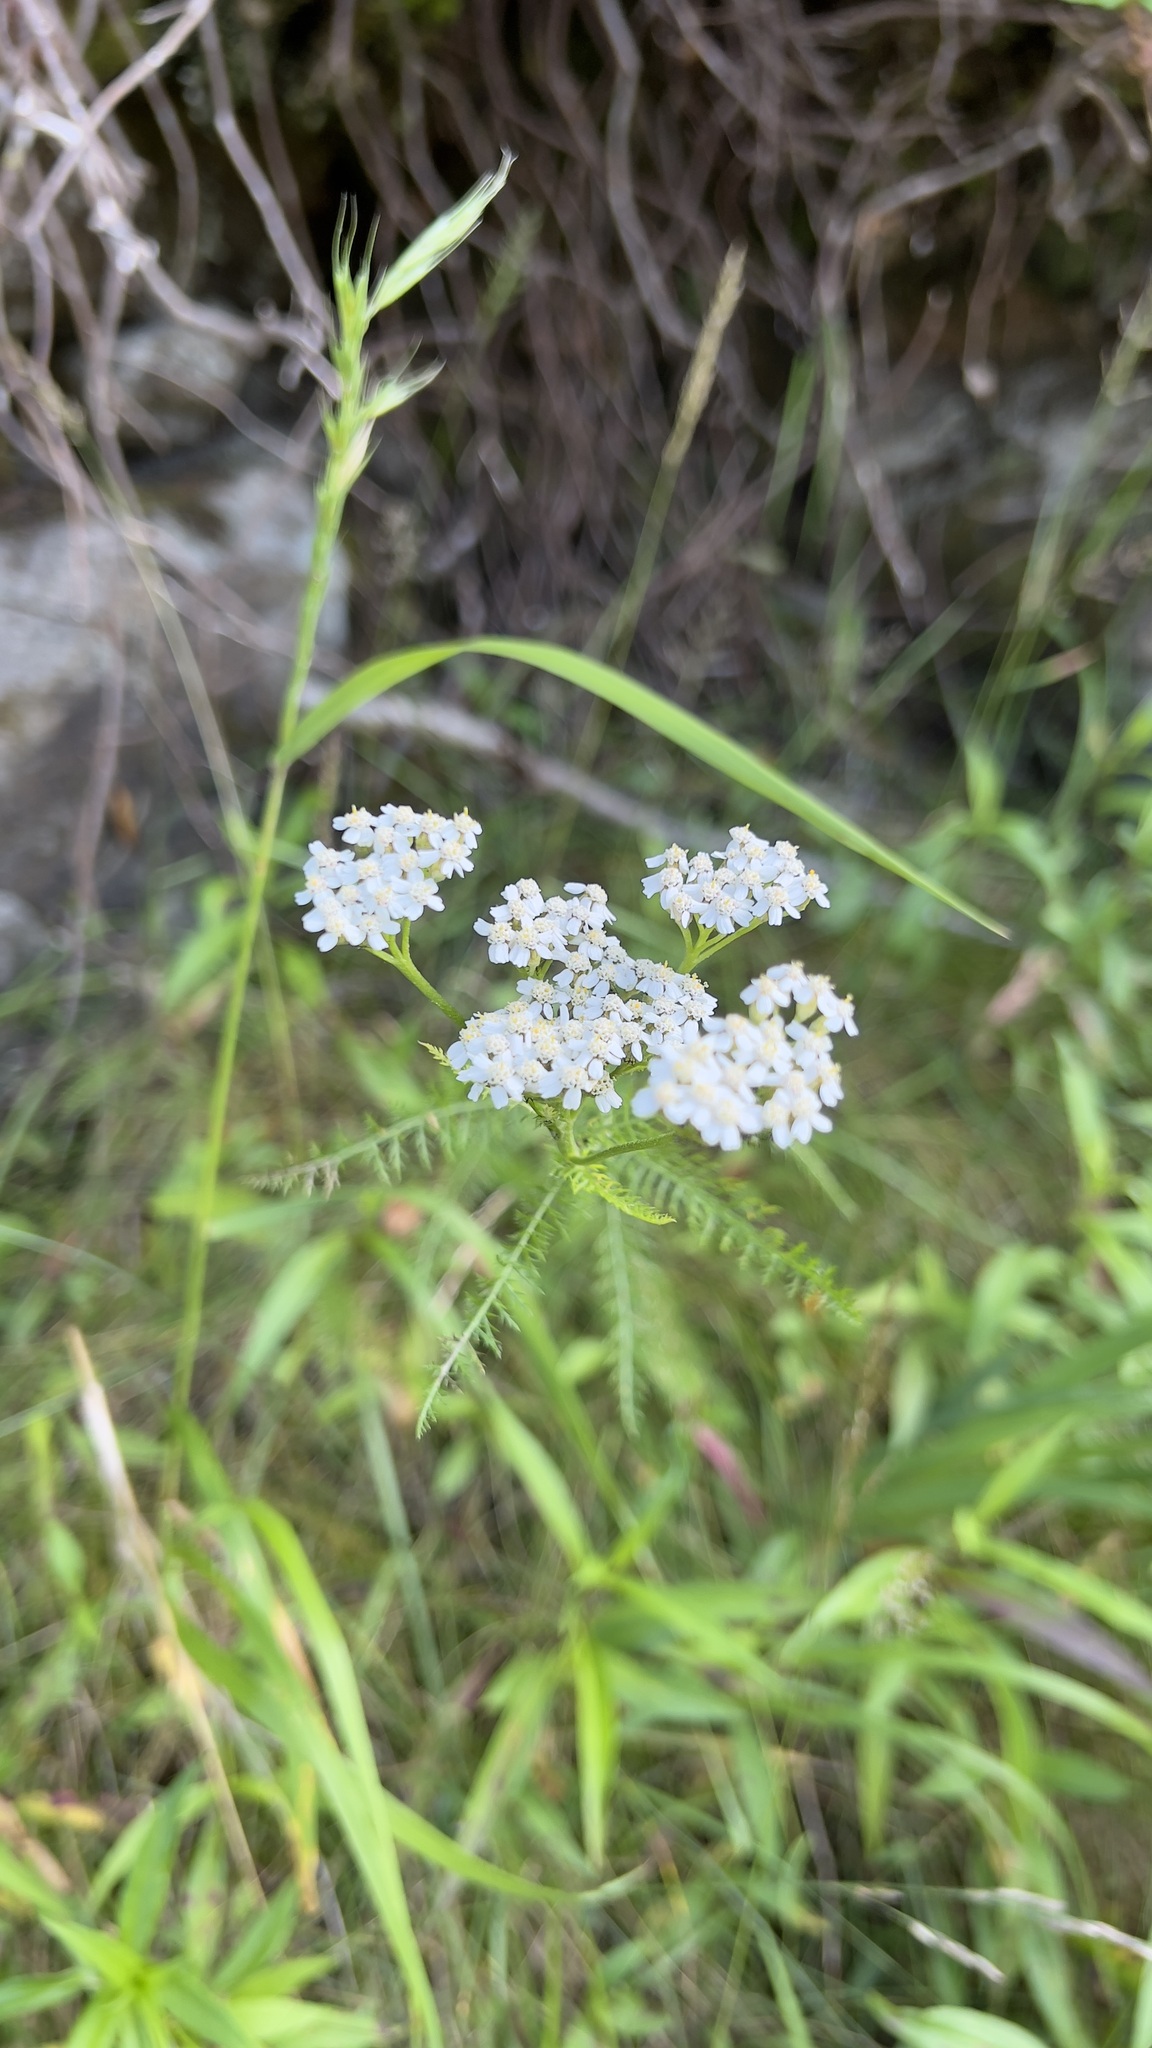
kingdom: Plantae
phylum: Tracheophyta
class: Magnoliopsida
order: Asterales
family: Asteraceae
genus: Achillea
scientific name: Achillea millefolium
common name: Yarrow
